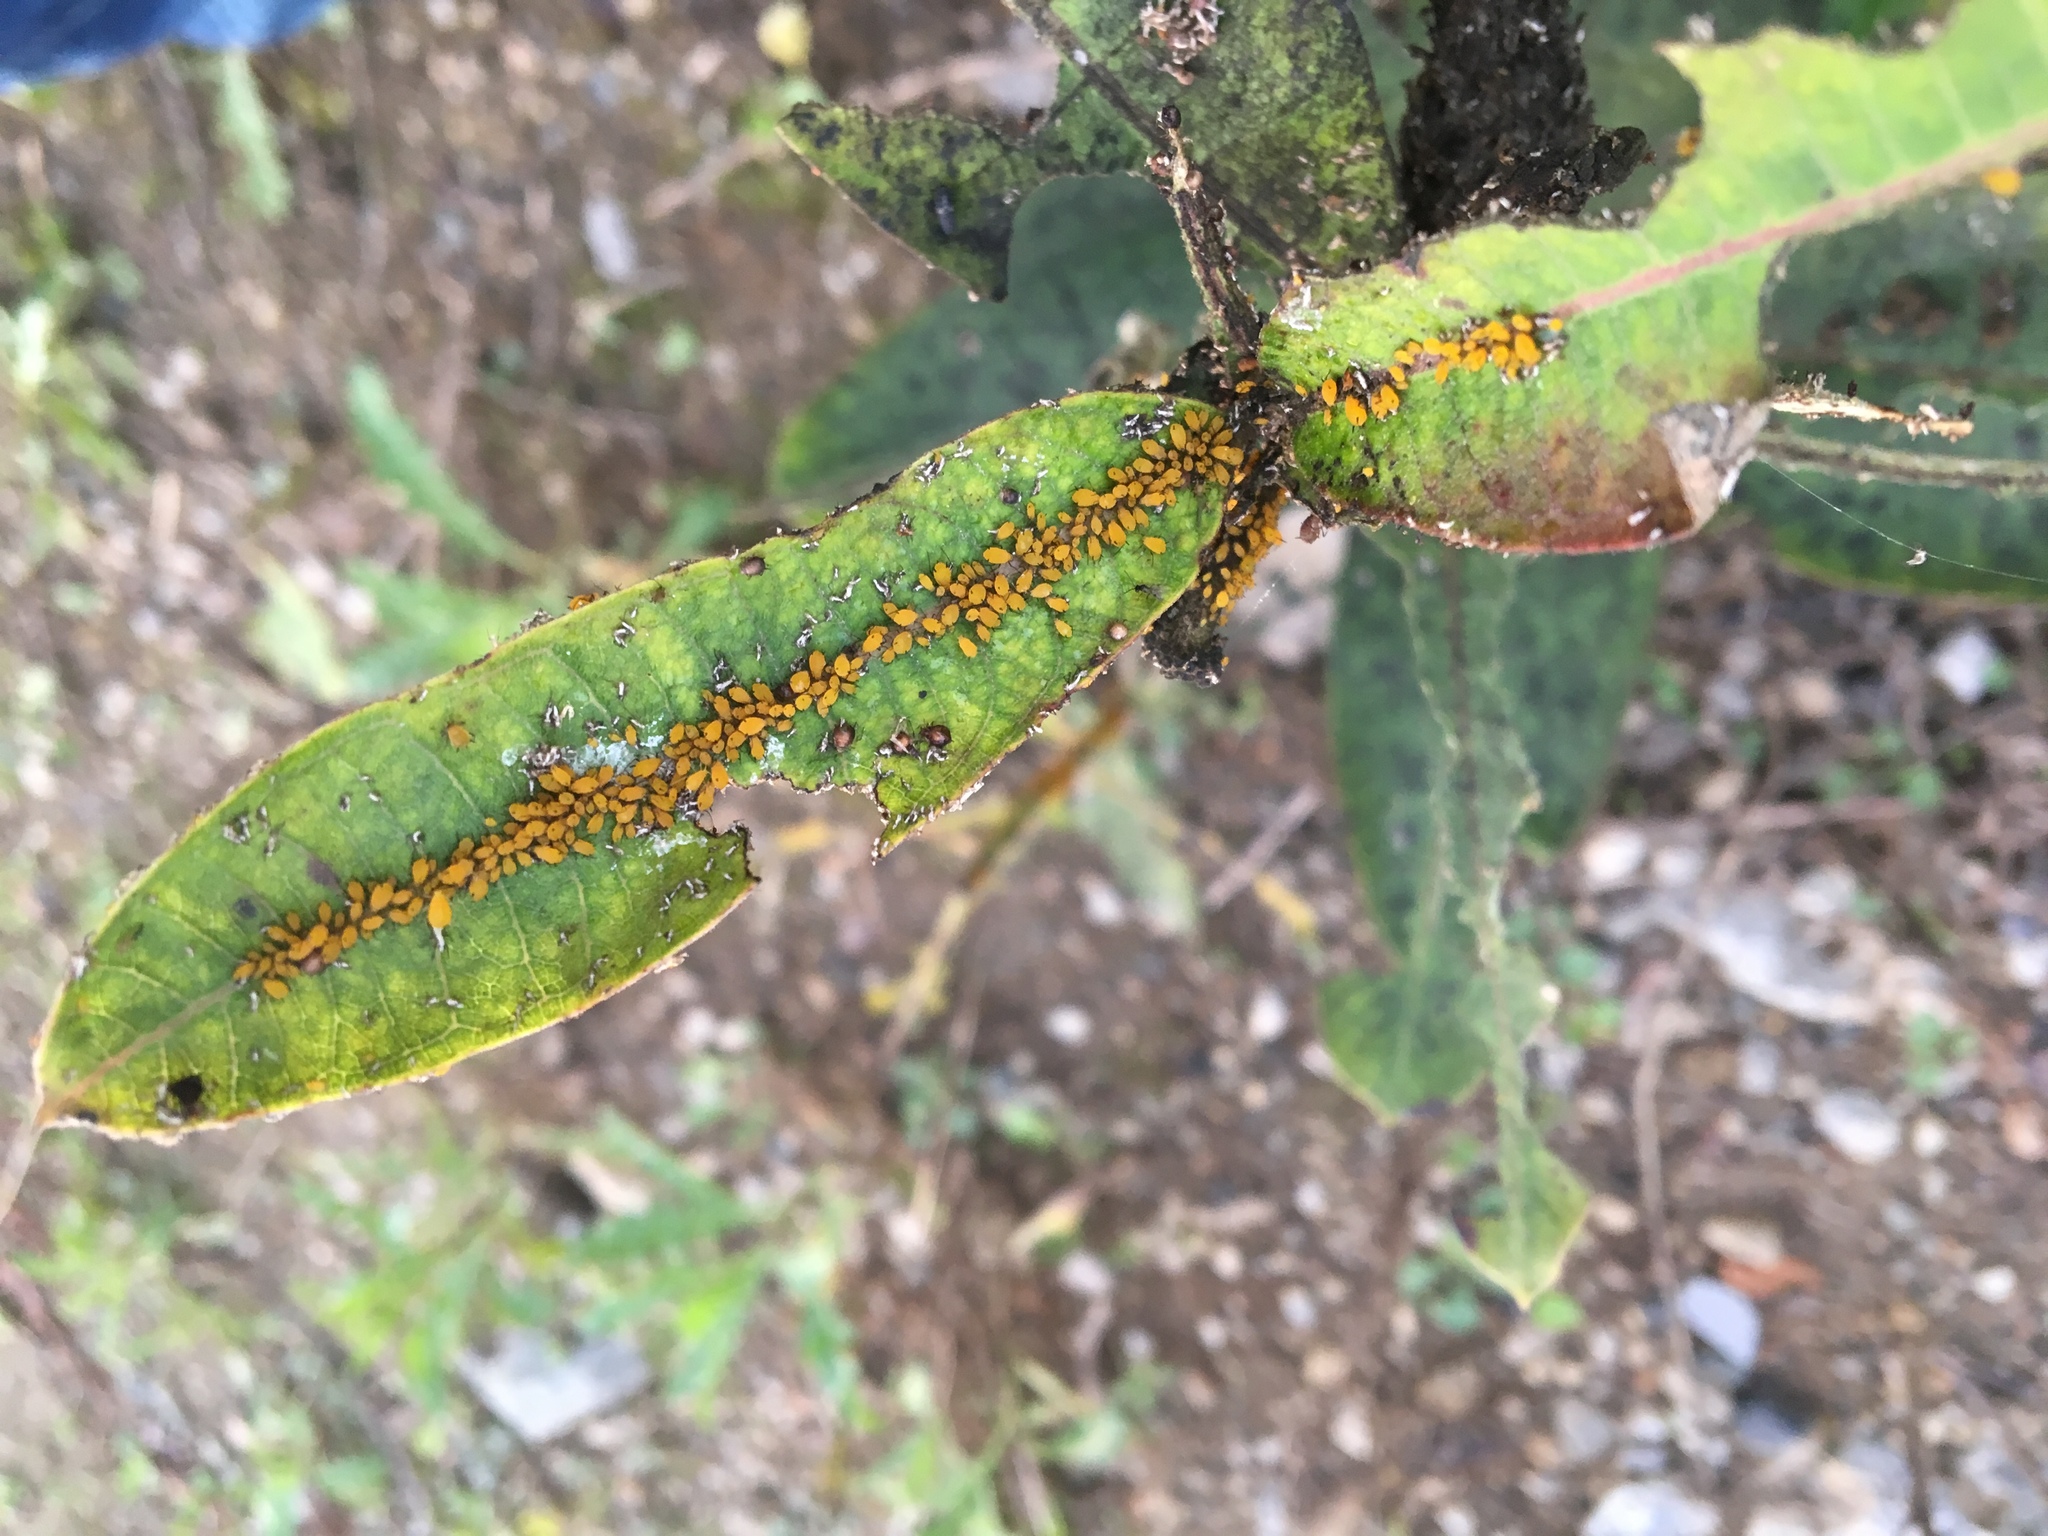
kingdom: Animalia
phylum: Arthropoda
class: Insecta
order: Hemiptera
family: Aphididae
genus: Aphis
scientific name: Aphis nerii
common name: Oleander aphid
